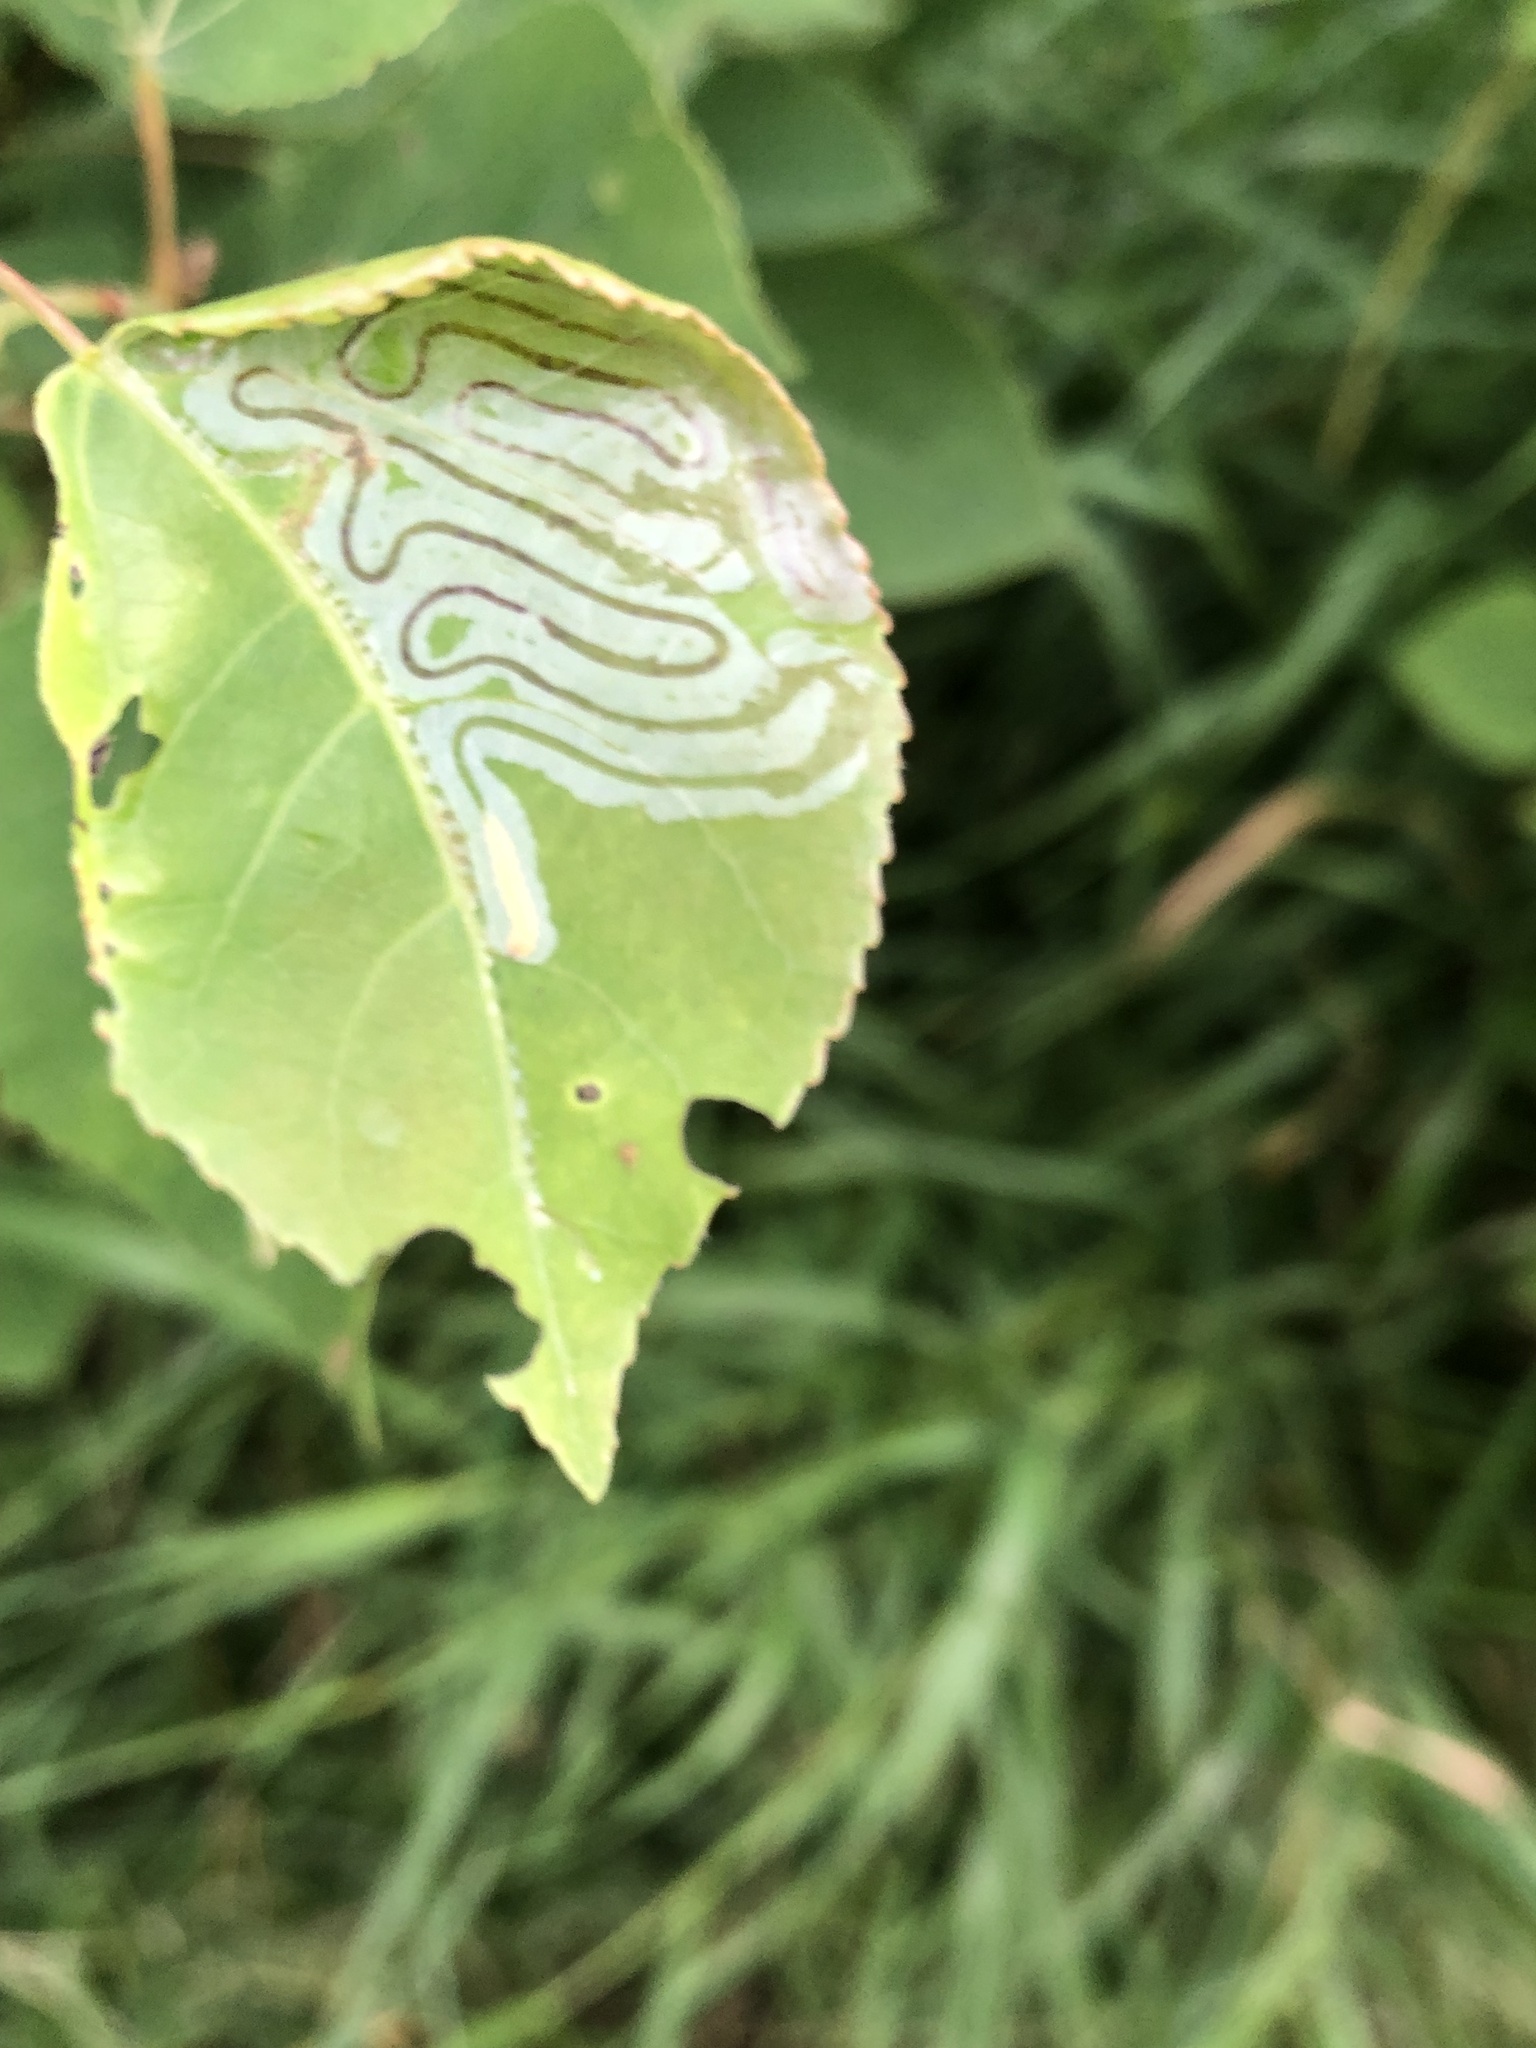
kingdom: Animalia
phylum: Arthropoda
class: Insecta
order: Lepidoptera
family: Gracillariidae
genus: Phyllocnistis
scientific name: Phyllocnistis populiella
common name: Aspen serpentine leafminer moth
